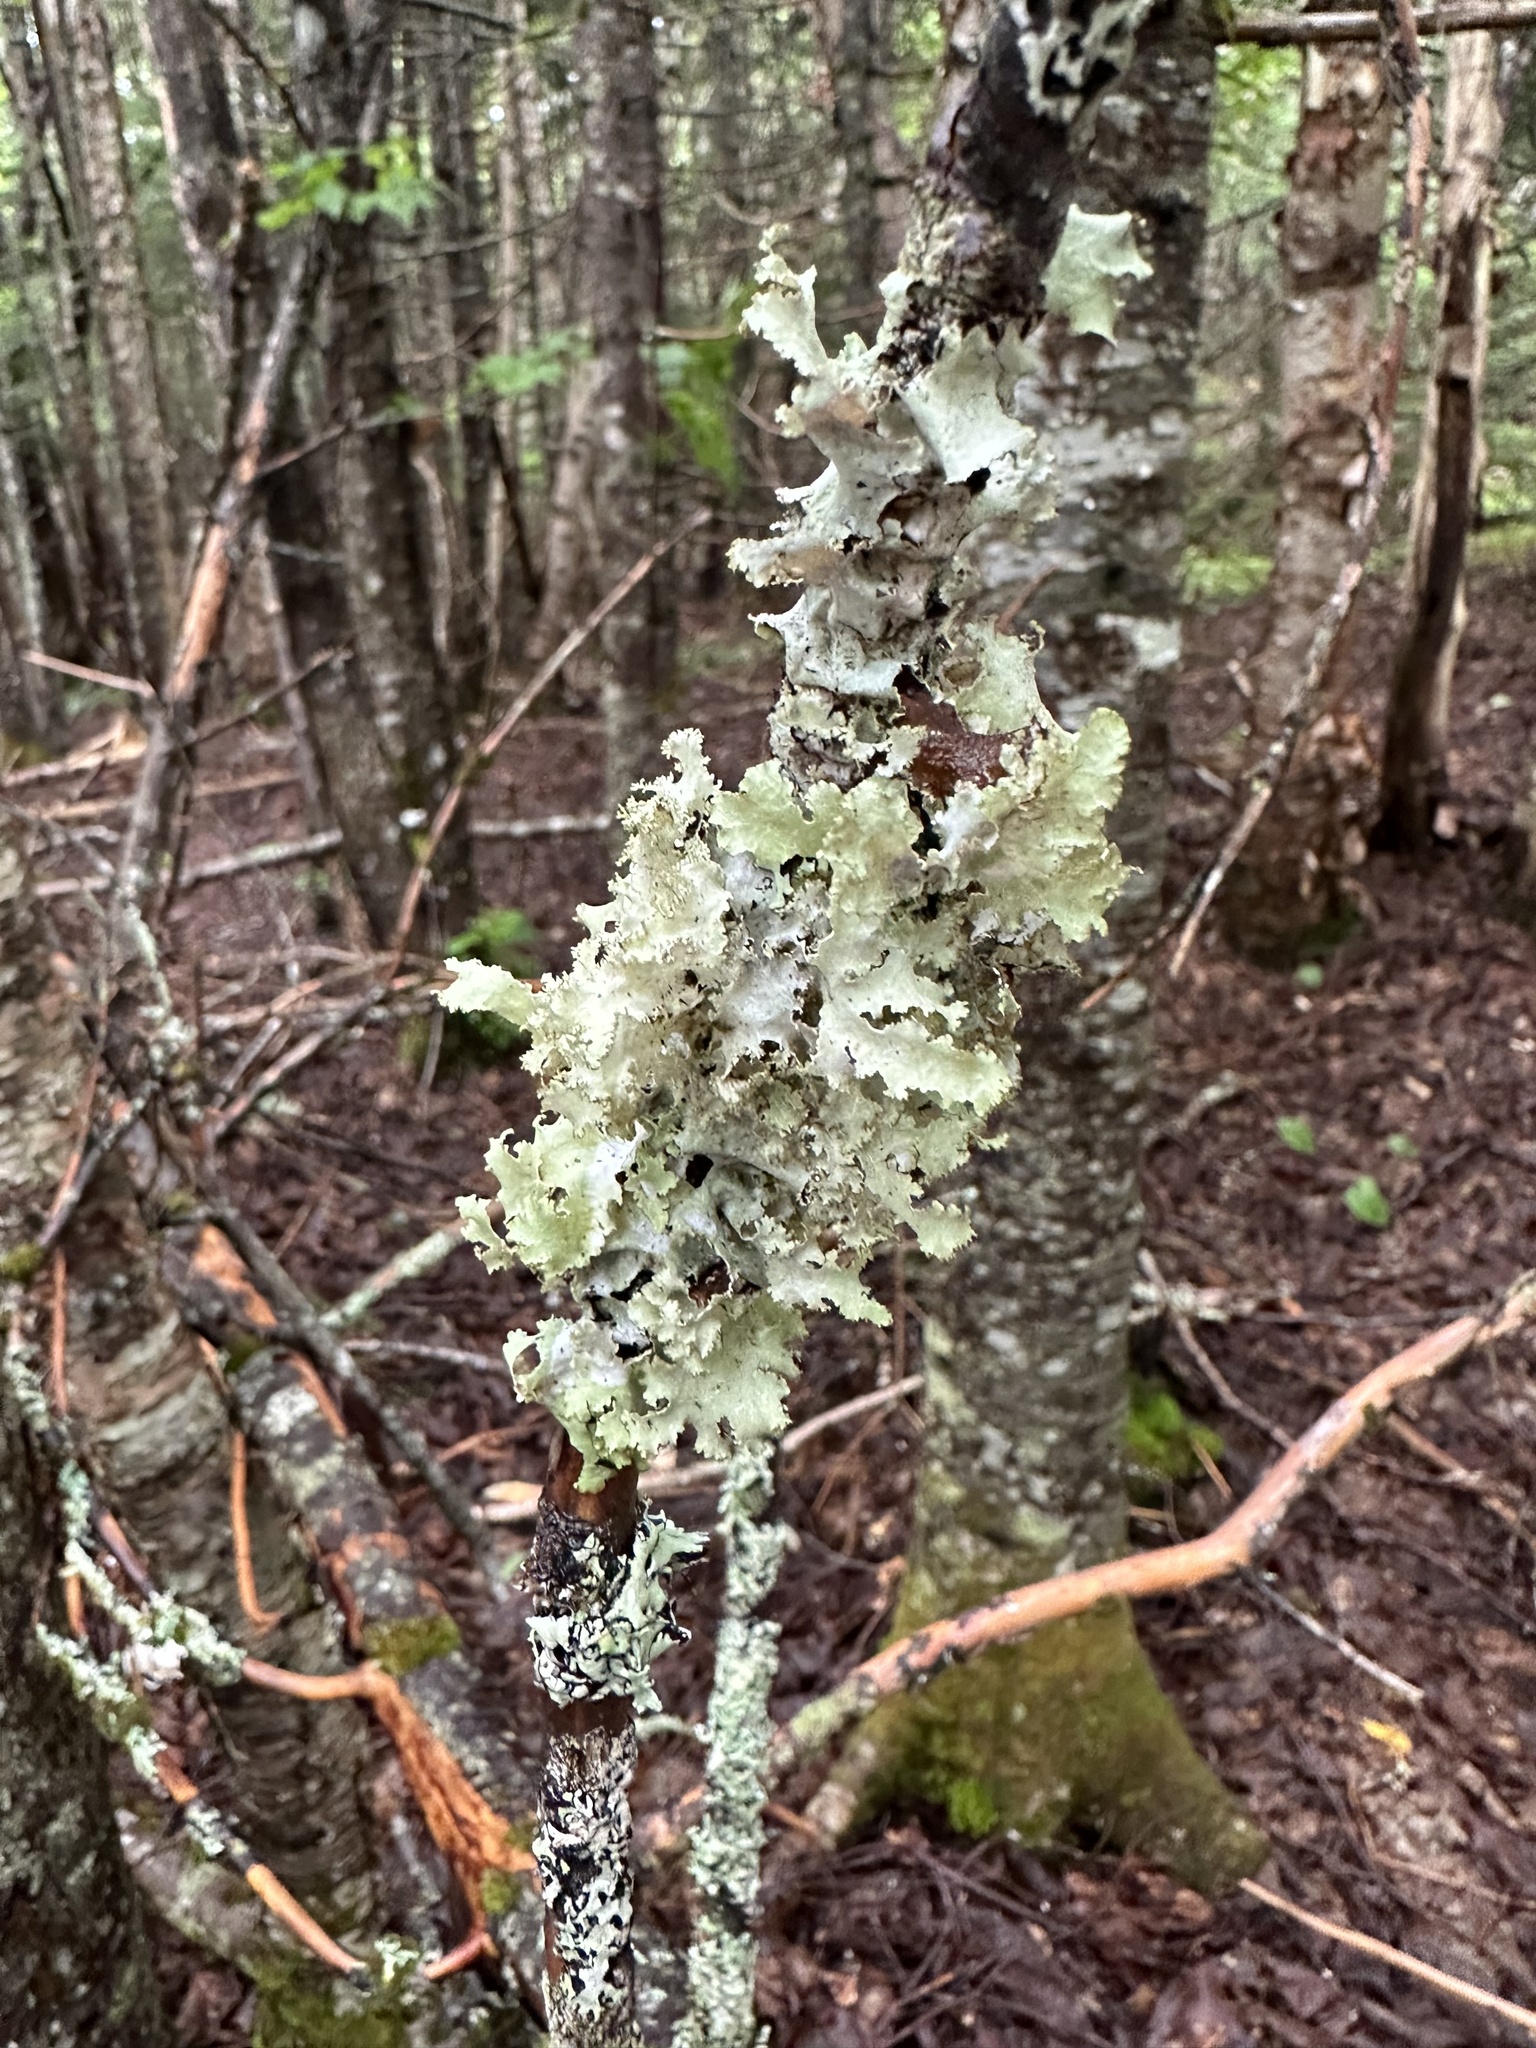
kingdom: Fungi
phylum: Ascomycota
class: Lecanoromycetes
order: Lecanorales
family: Parmeliaceae
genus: Platismatia
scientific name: Platismatia glauca
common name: Varied rag lichen
